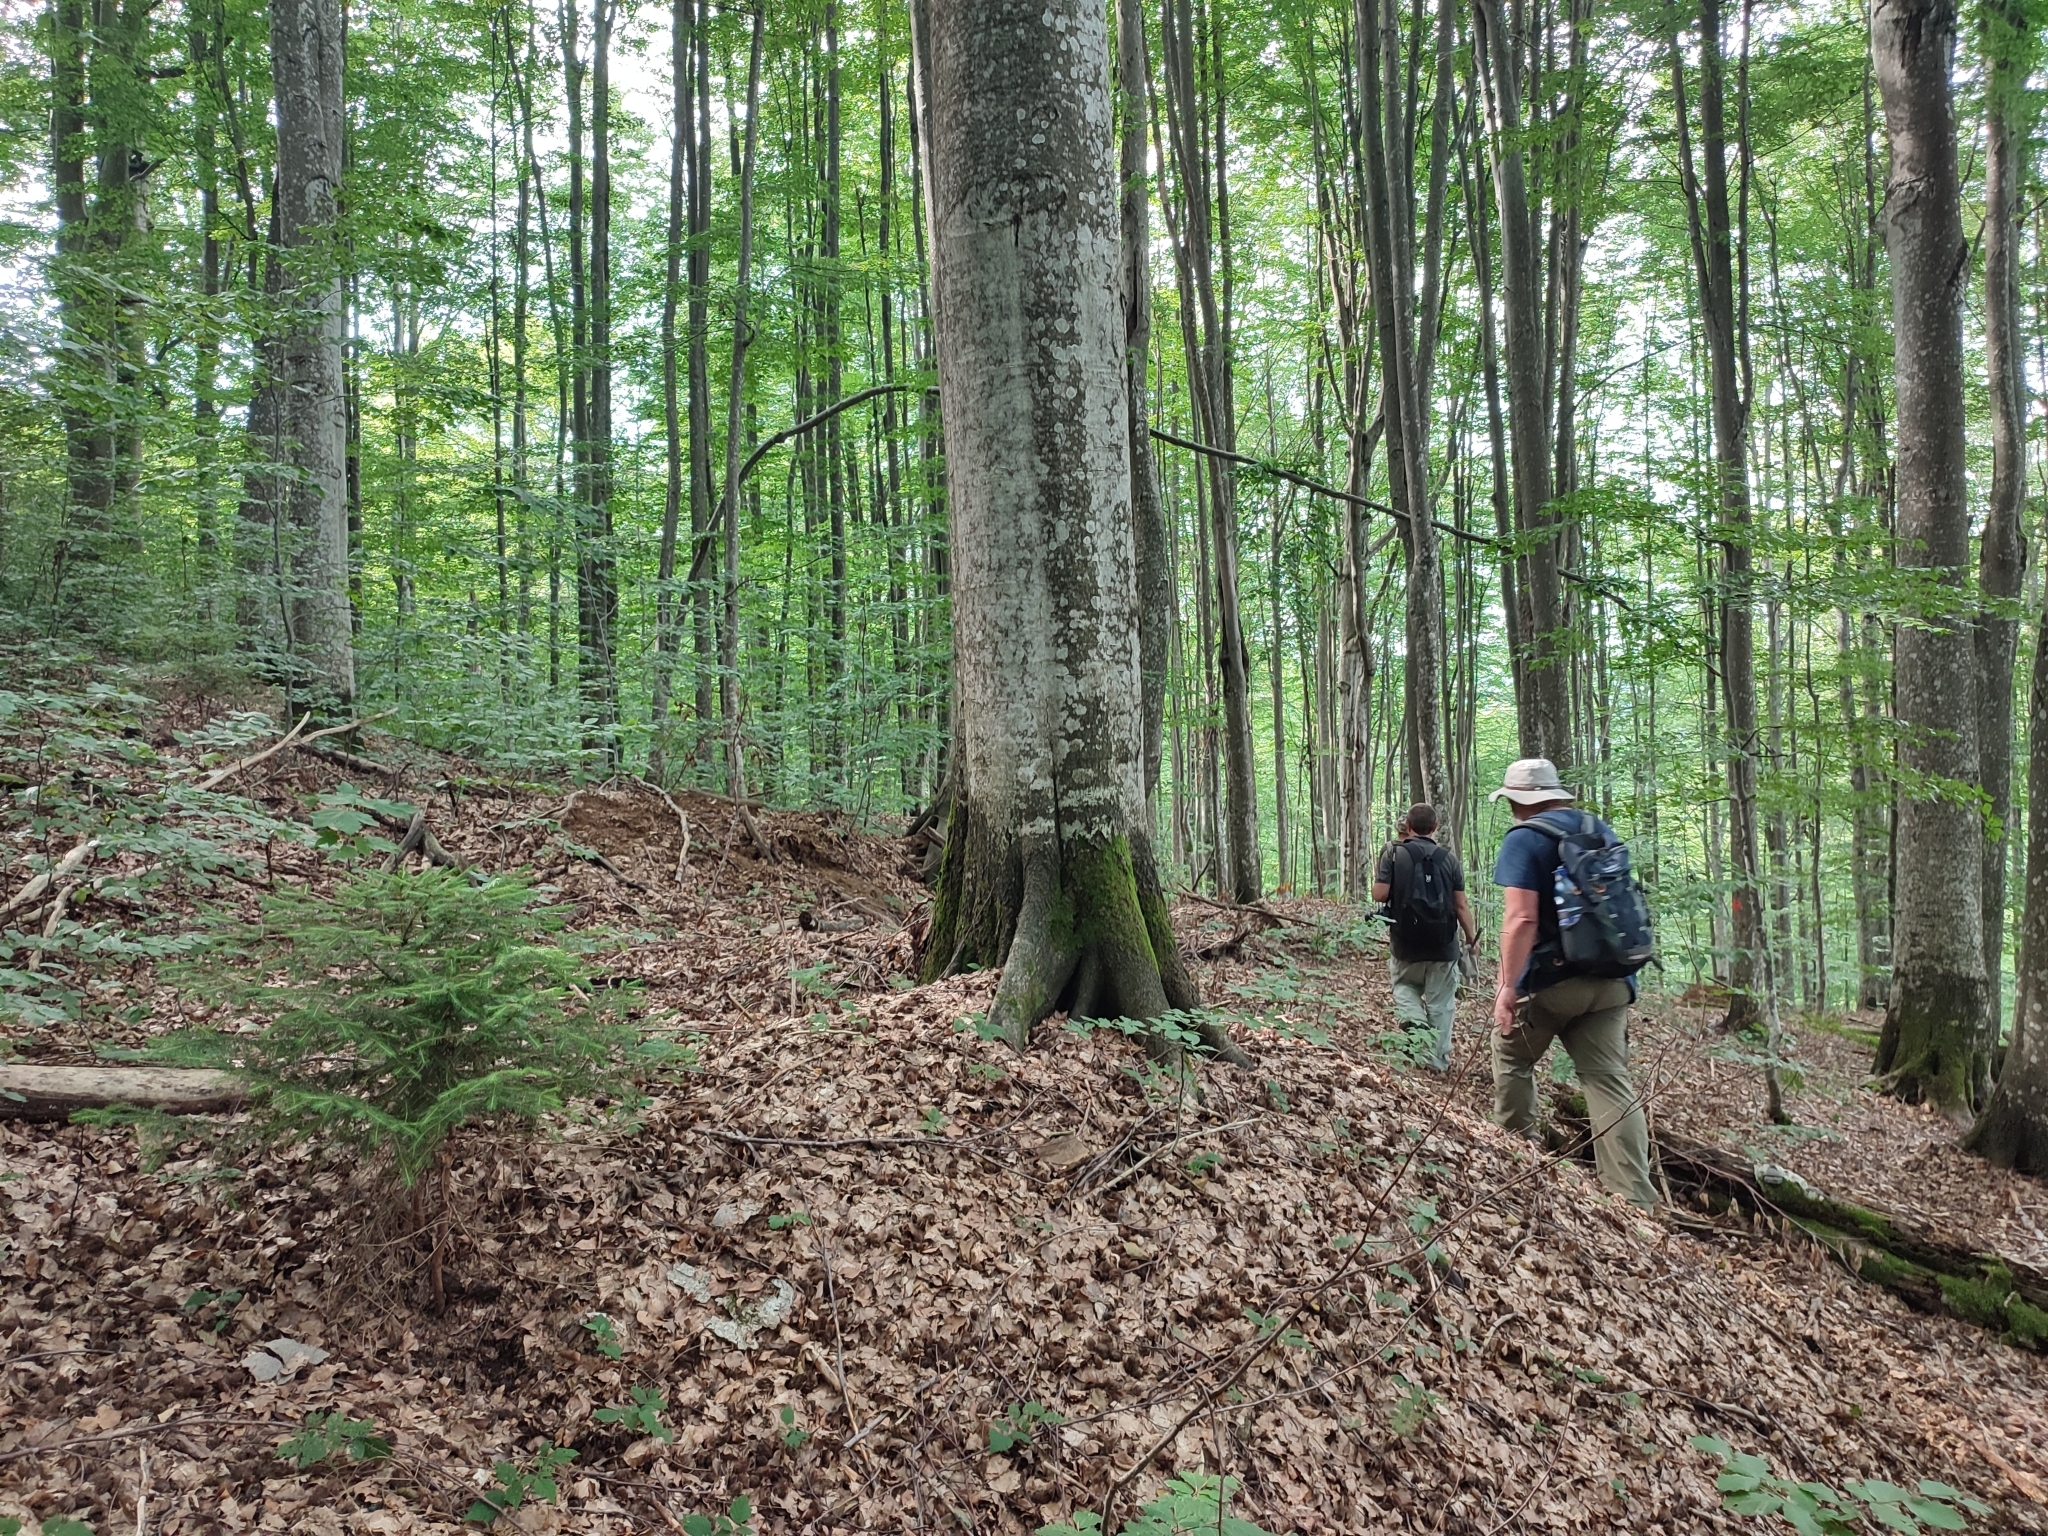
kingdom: Plantae
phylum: Tracheophyta
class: Magnoliopsida
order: Fagales
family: Fagaceae
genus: Fagus
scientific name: Fagus sylvatica
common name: Beech
